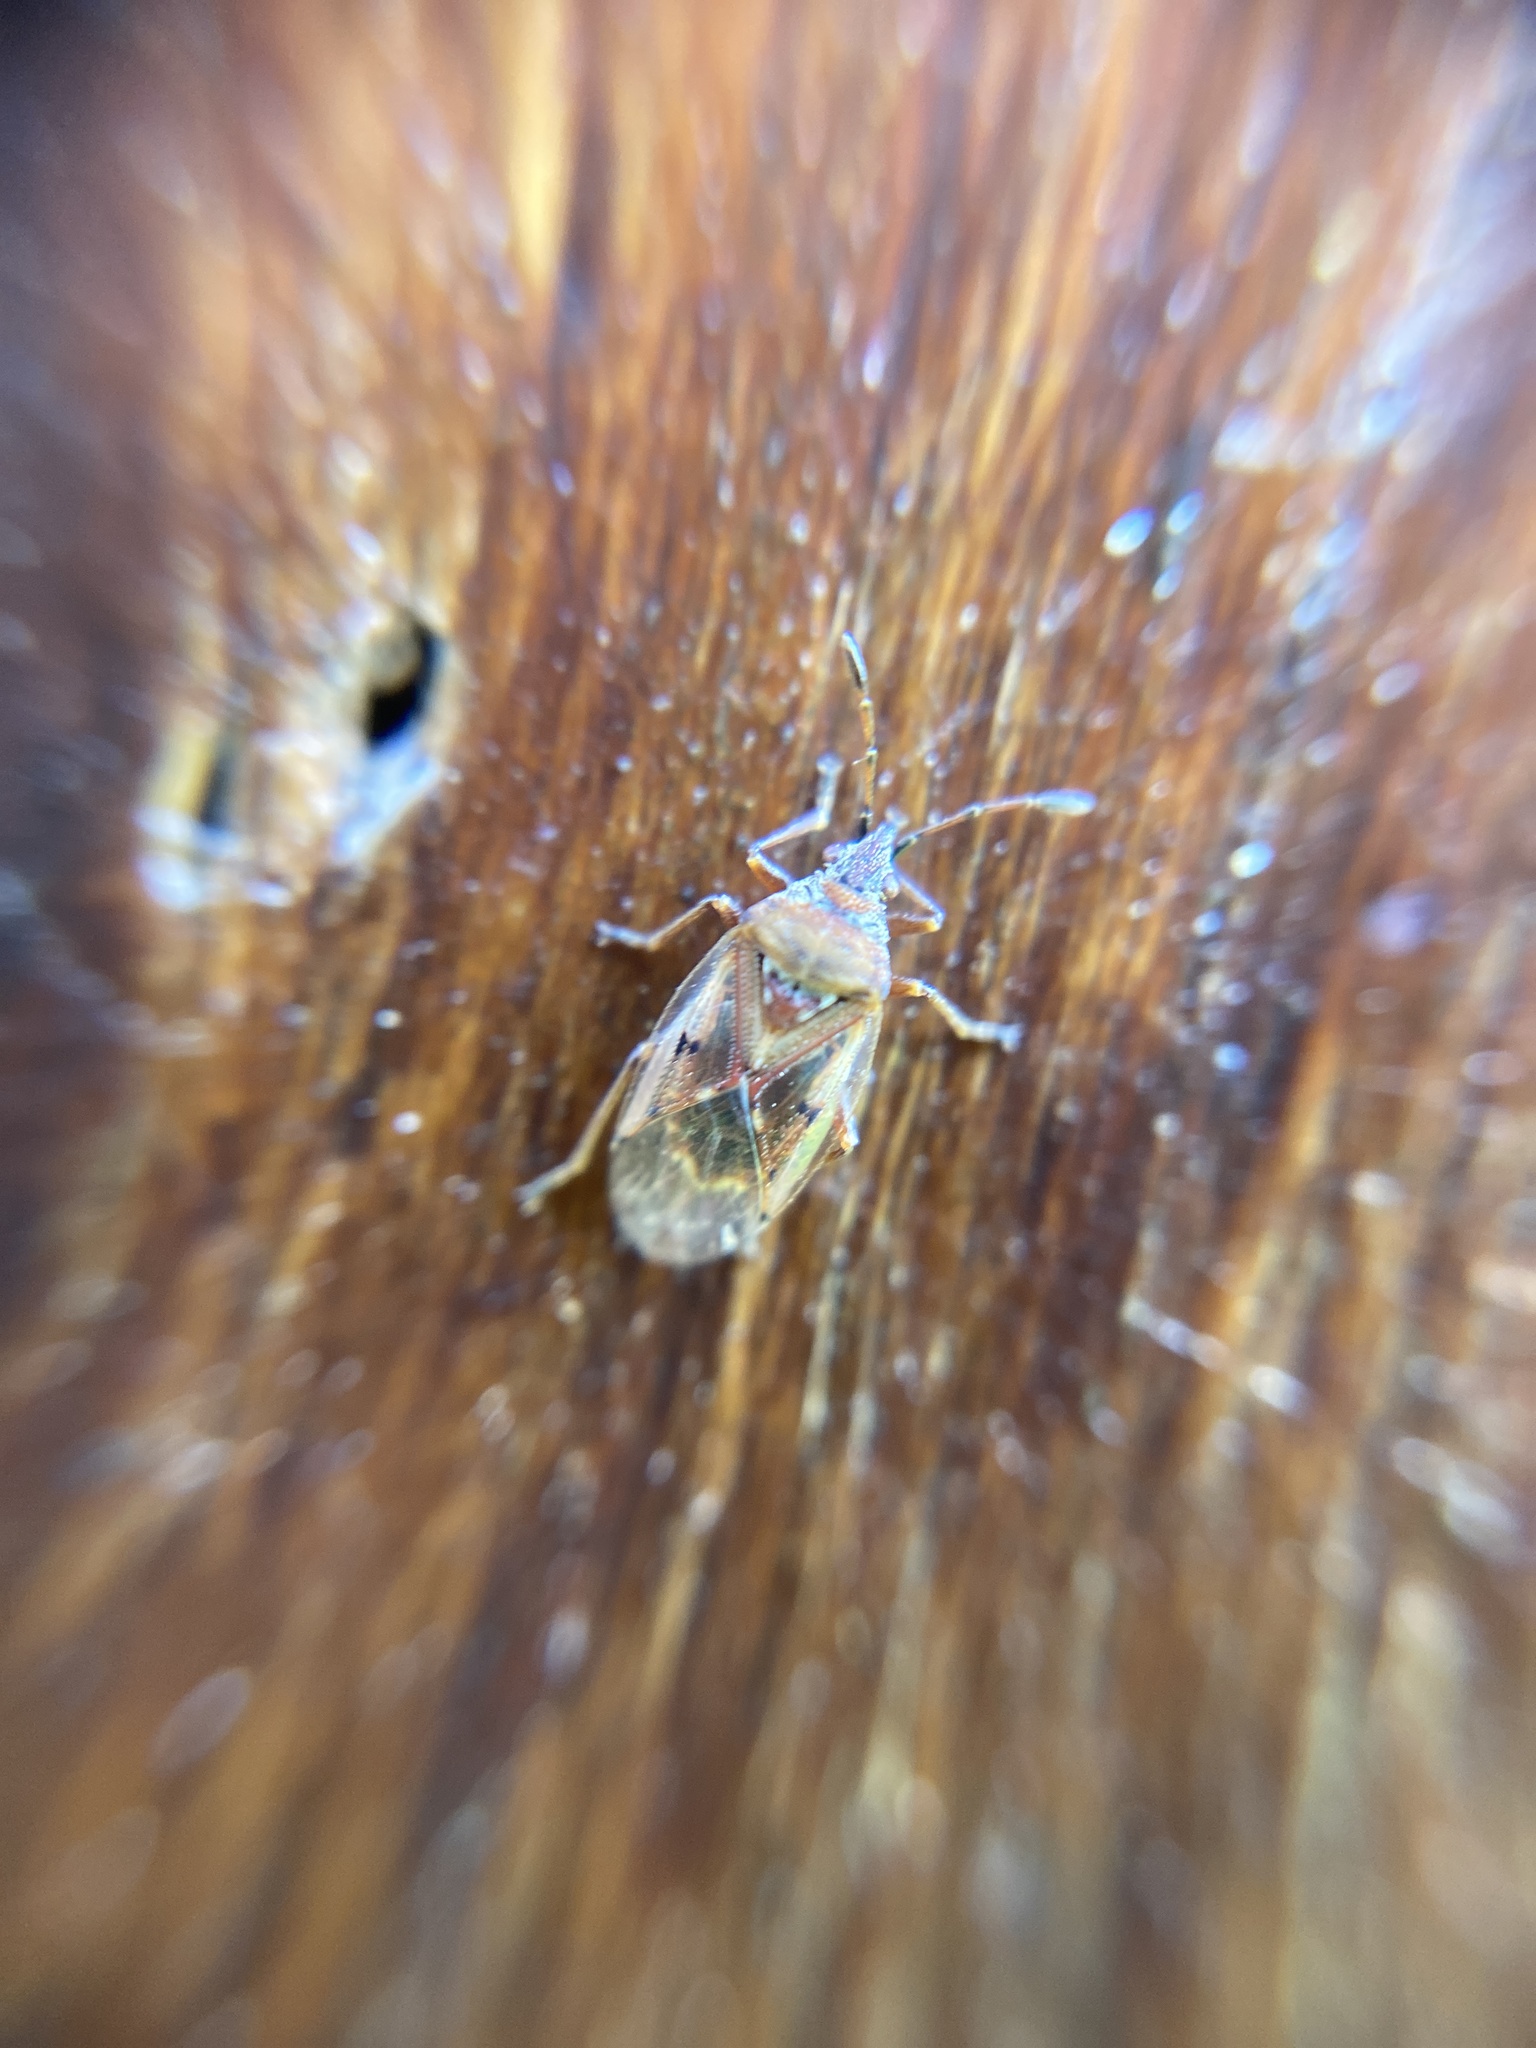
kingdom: Animalia
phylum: Arthropoda
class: Insecta
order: Hemiptera
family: Lygaeidae
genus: Kleidocerys
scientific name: Kleidocerys resedae
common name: Birch catkin bug
